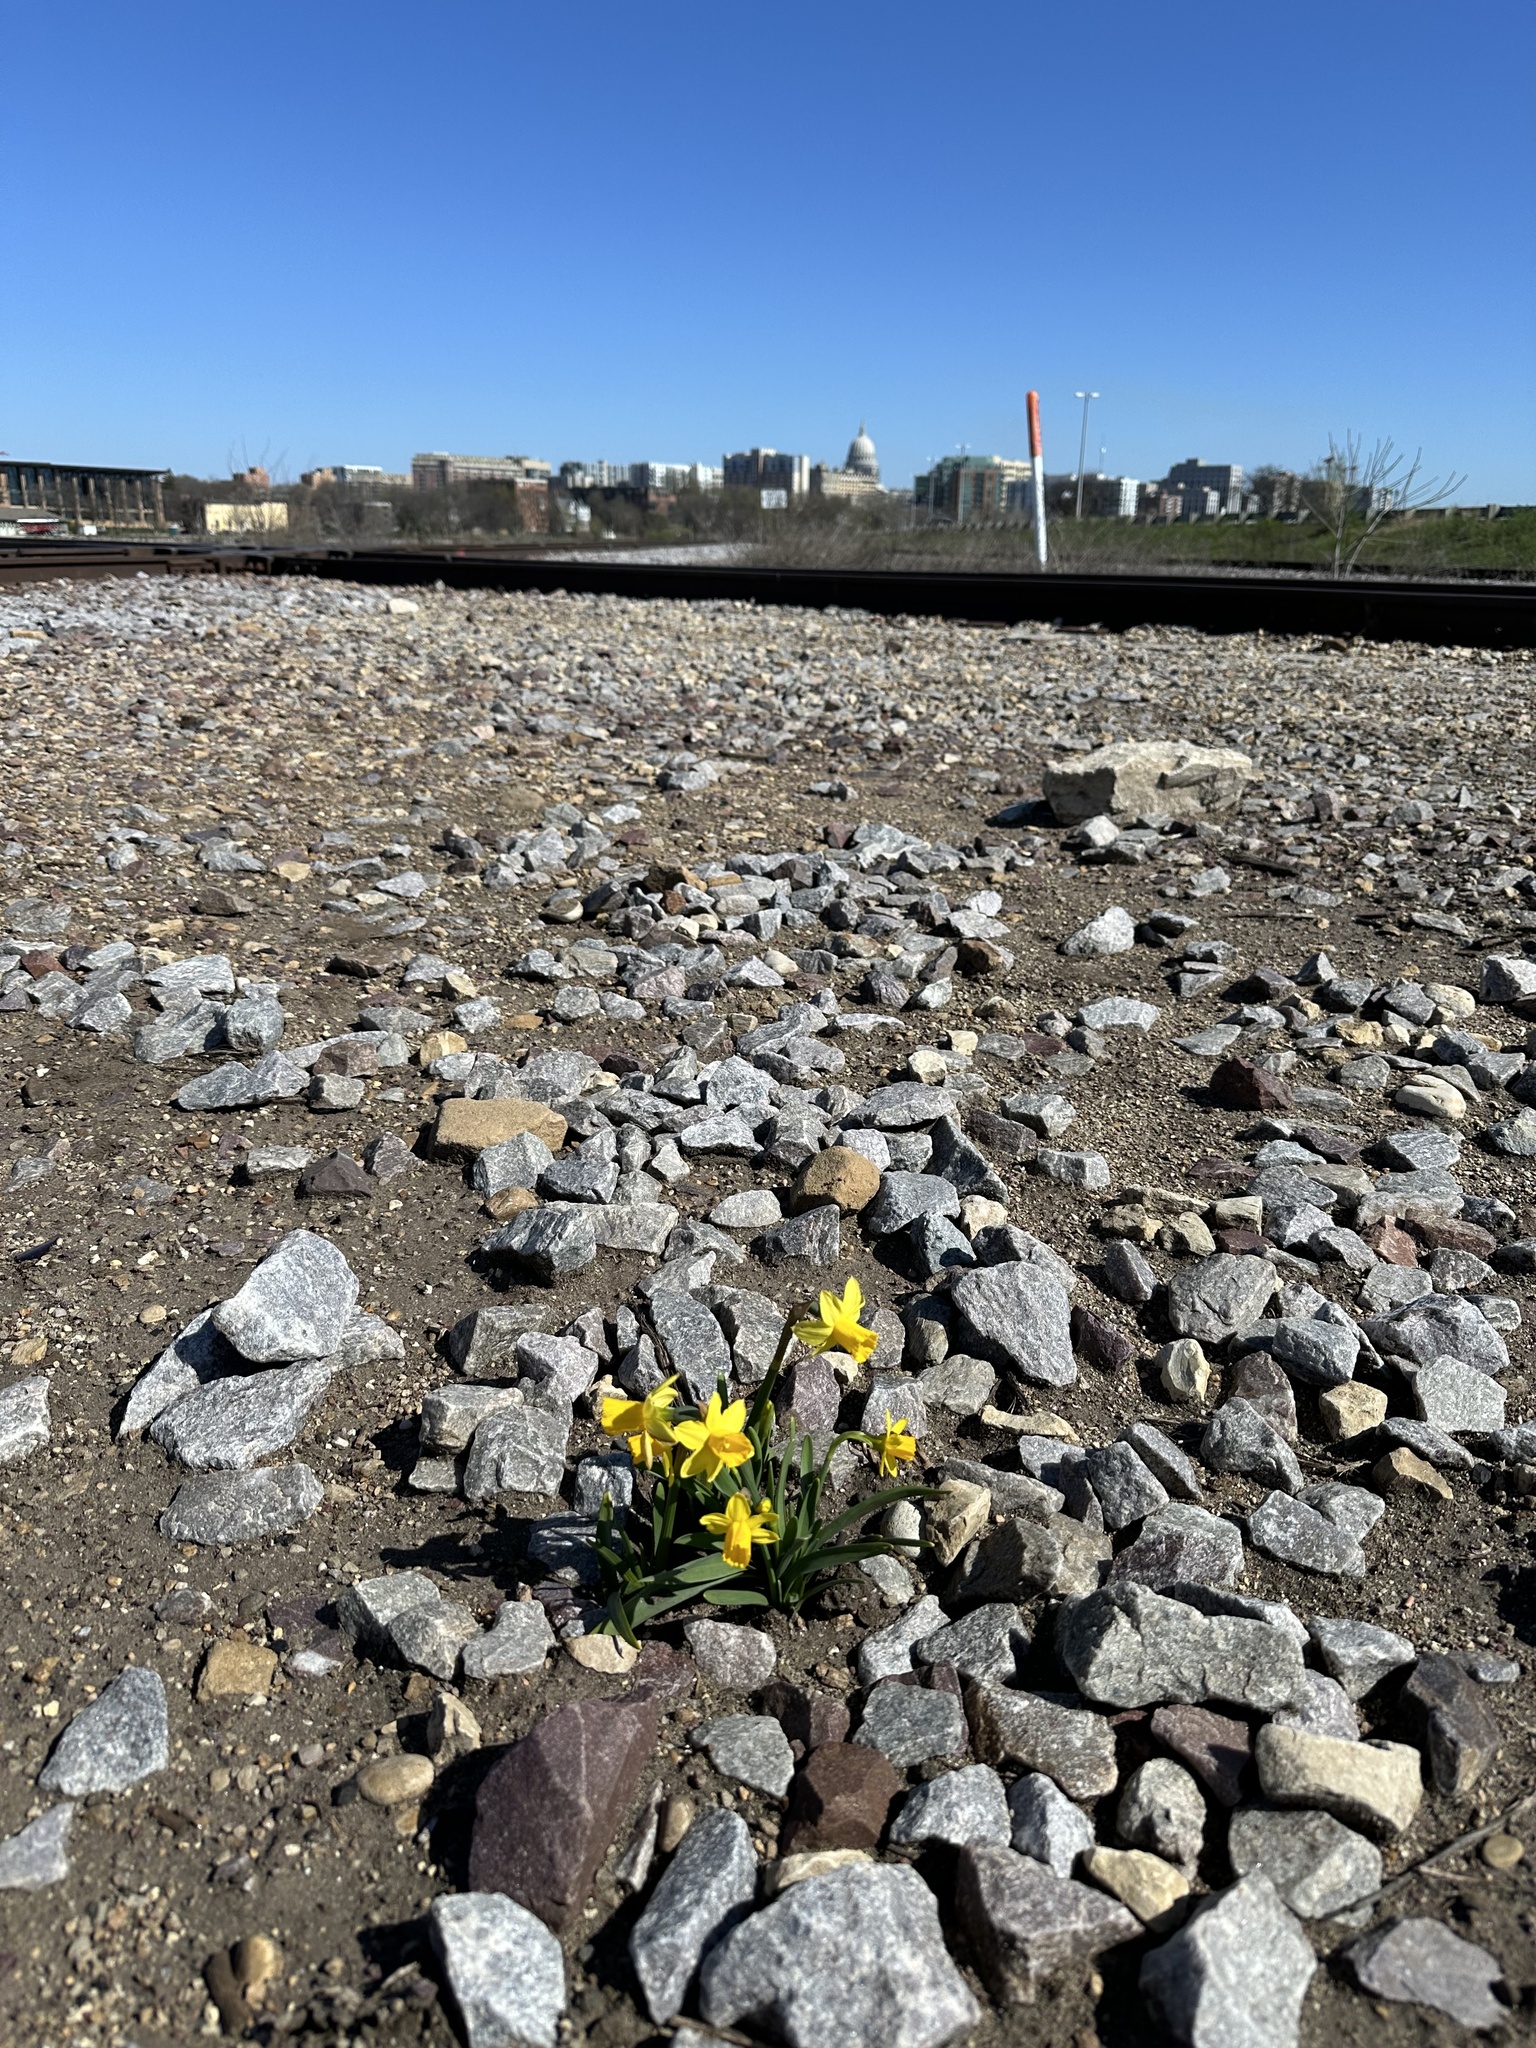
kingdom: Plantae
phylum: Tracheophyta
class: Liliopsida
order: Asparagales
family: Amaryllidaceae
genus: Narcissus
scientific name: Narcissus pseudonarcissus
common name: Daffodil
